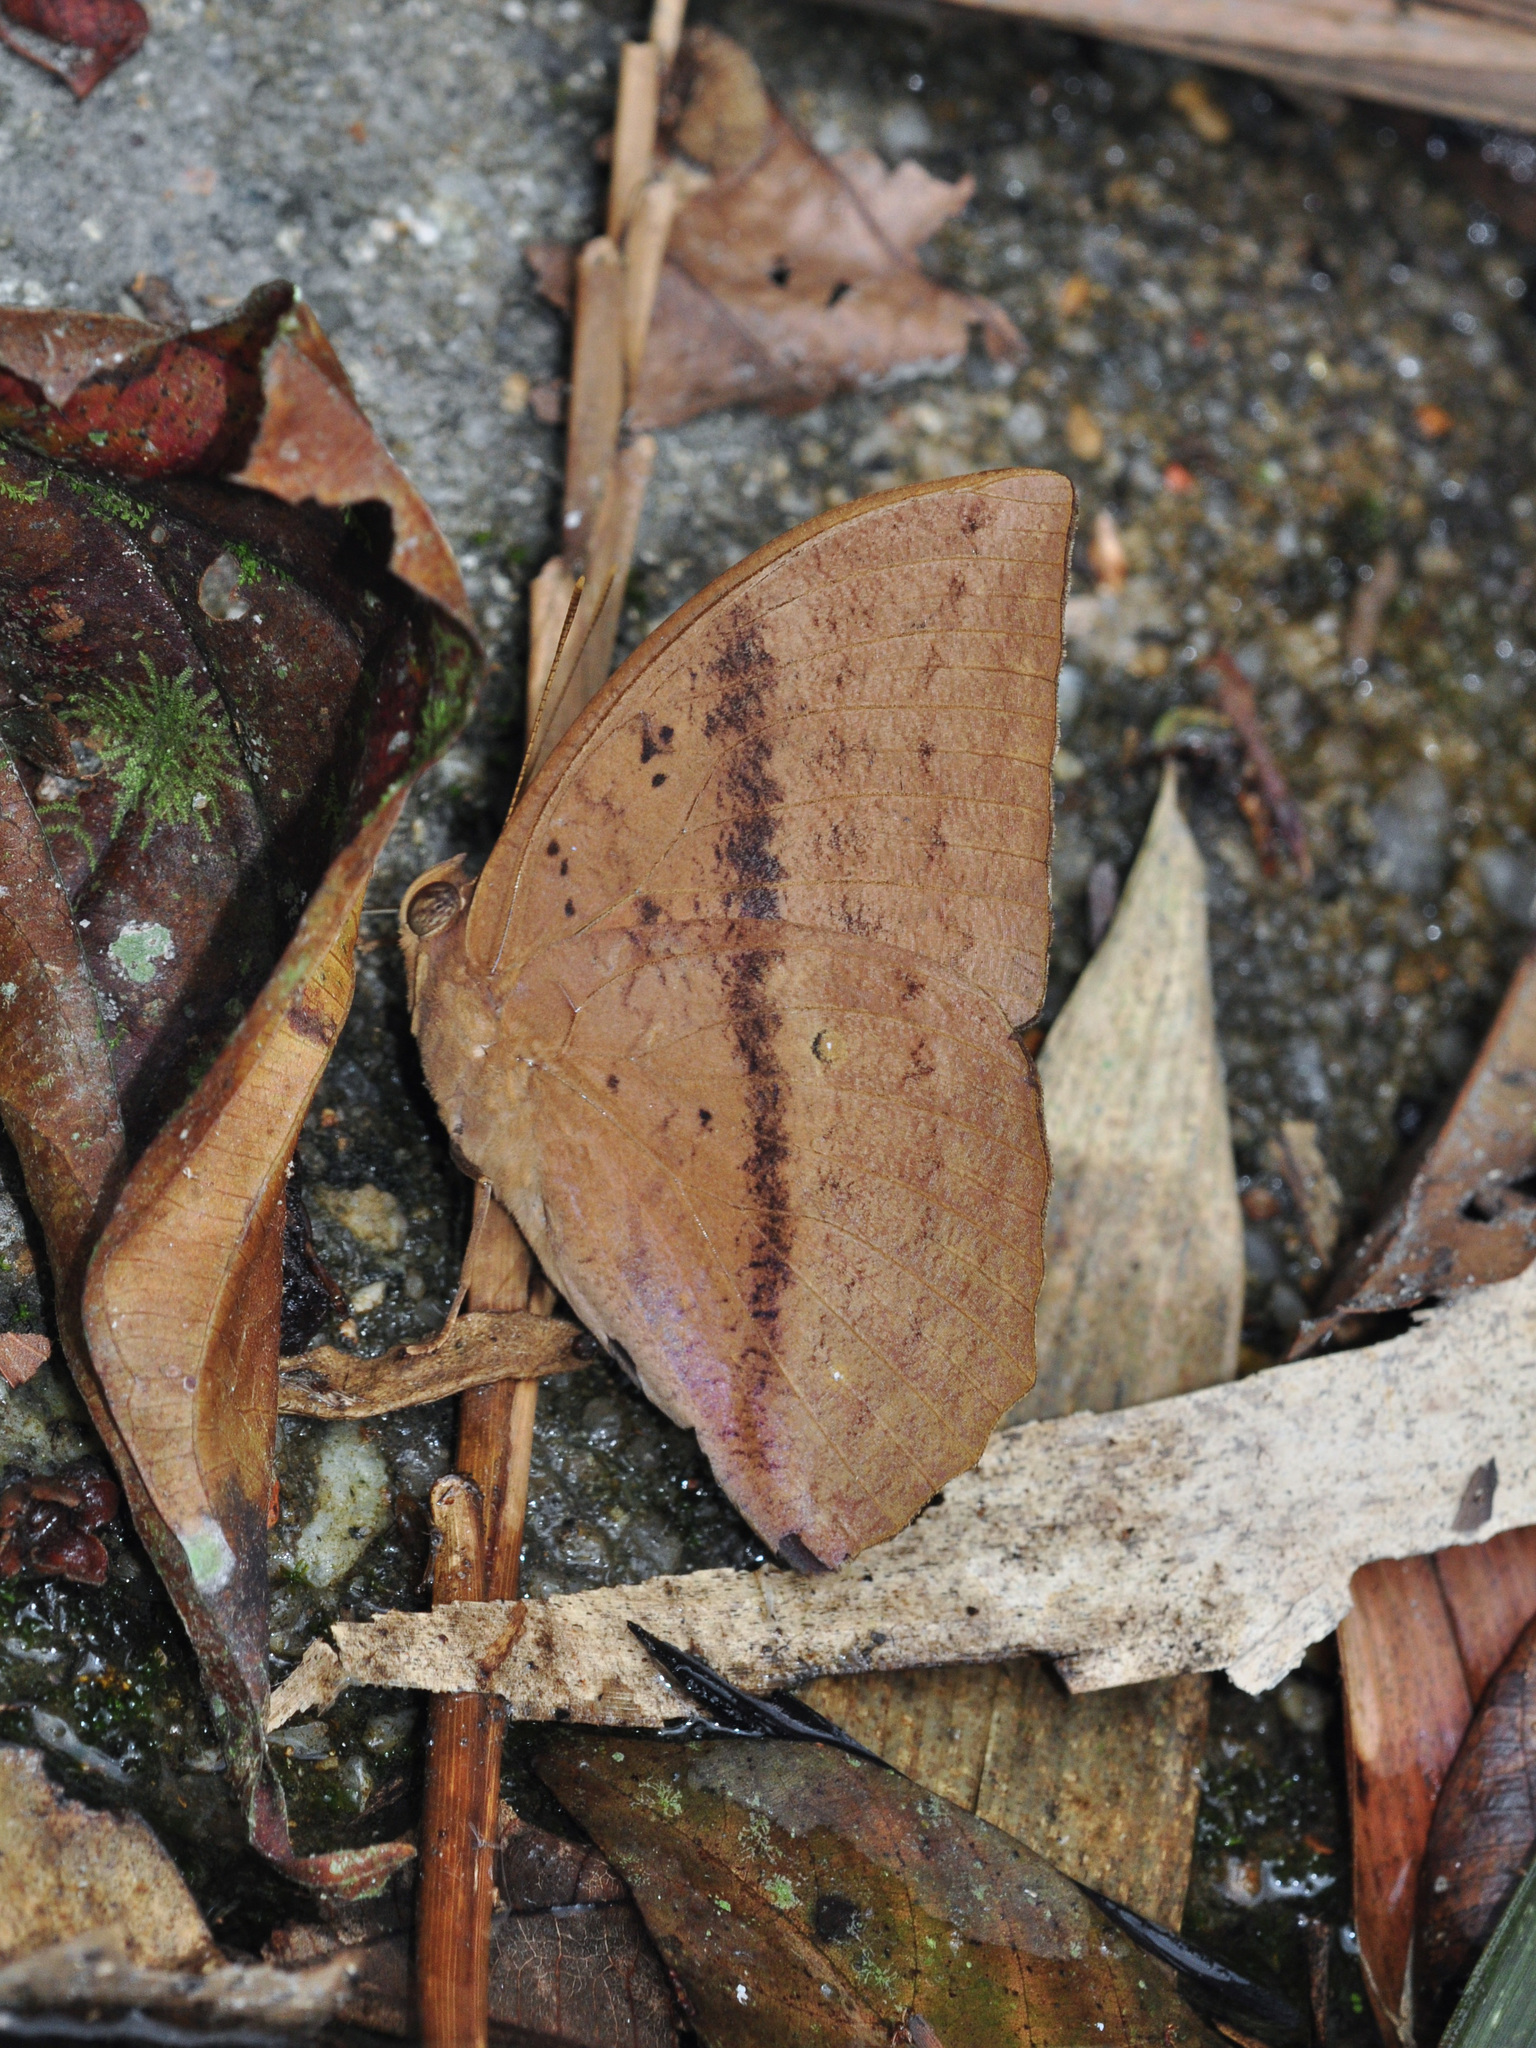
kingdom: Animalia
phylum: Arthropoda
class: Insecta
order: Lepidoptera
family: Nymphalidae
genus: Discophora
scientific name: Discophora sondaica
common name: Common duffer
